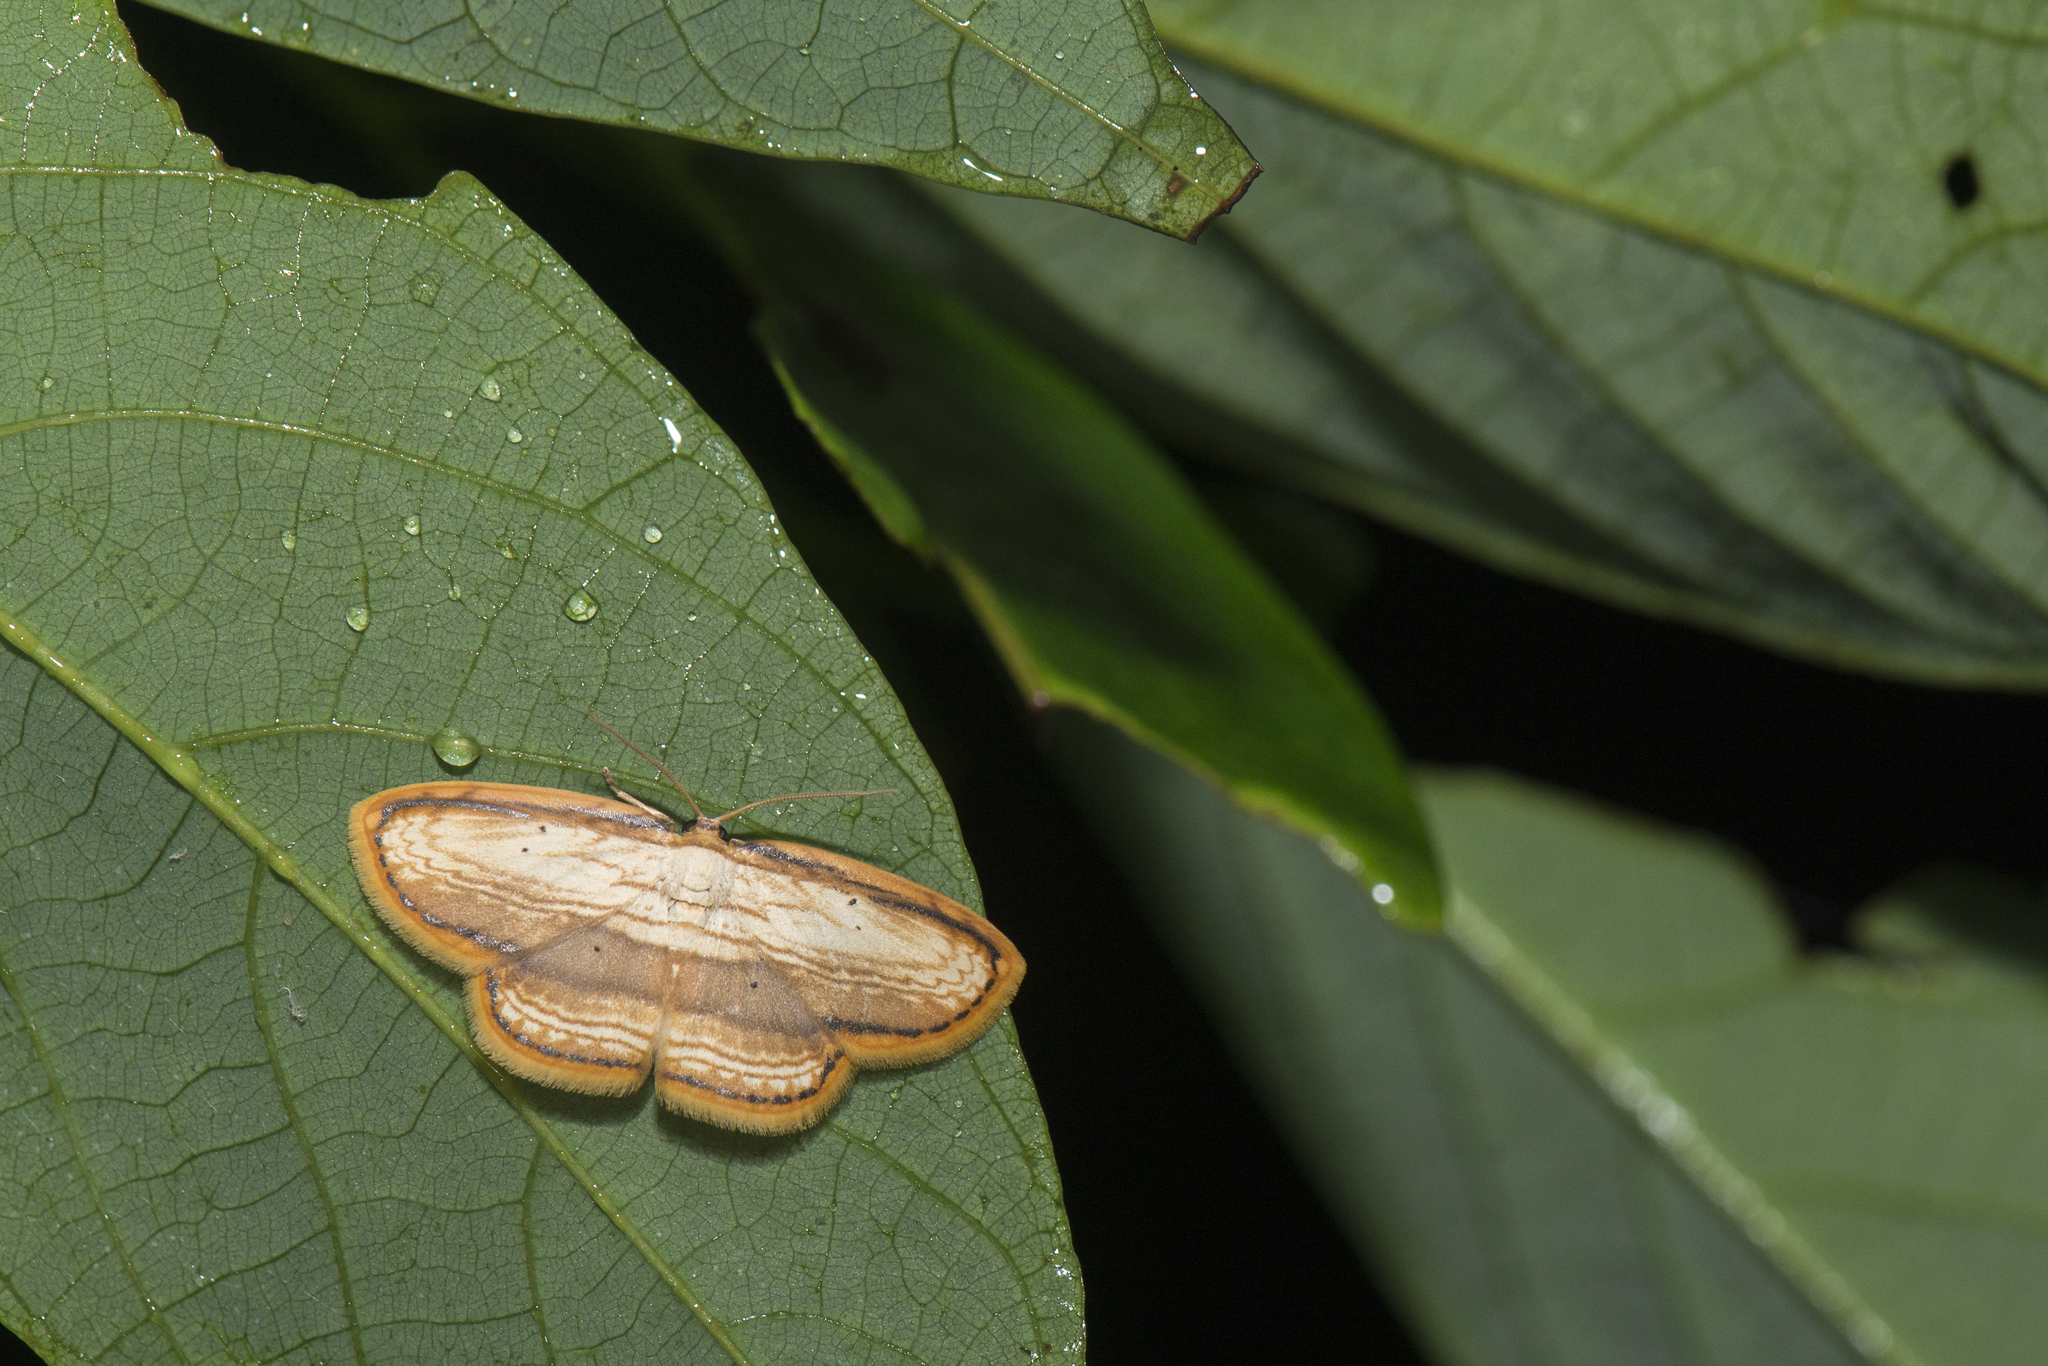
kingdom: Animalia
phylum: Arthropoda
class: Insecta
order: Lepidoptera
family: Drepanidae
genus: Drapetodes
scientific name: Drapetodes mitaria
